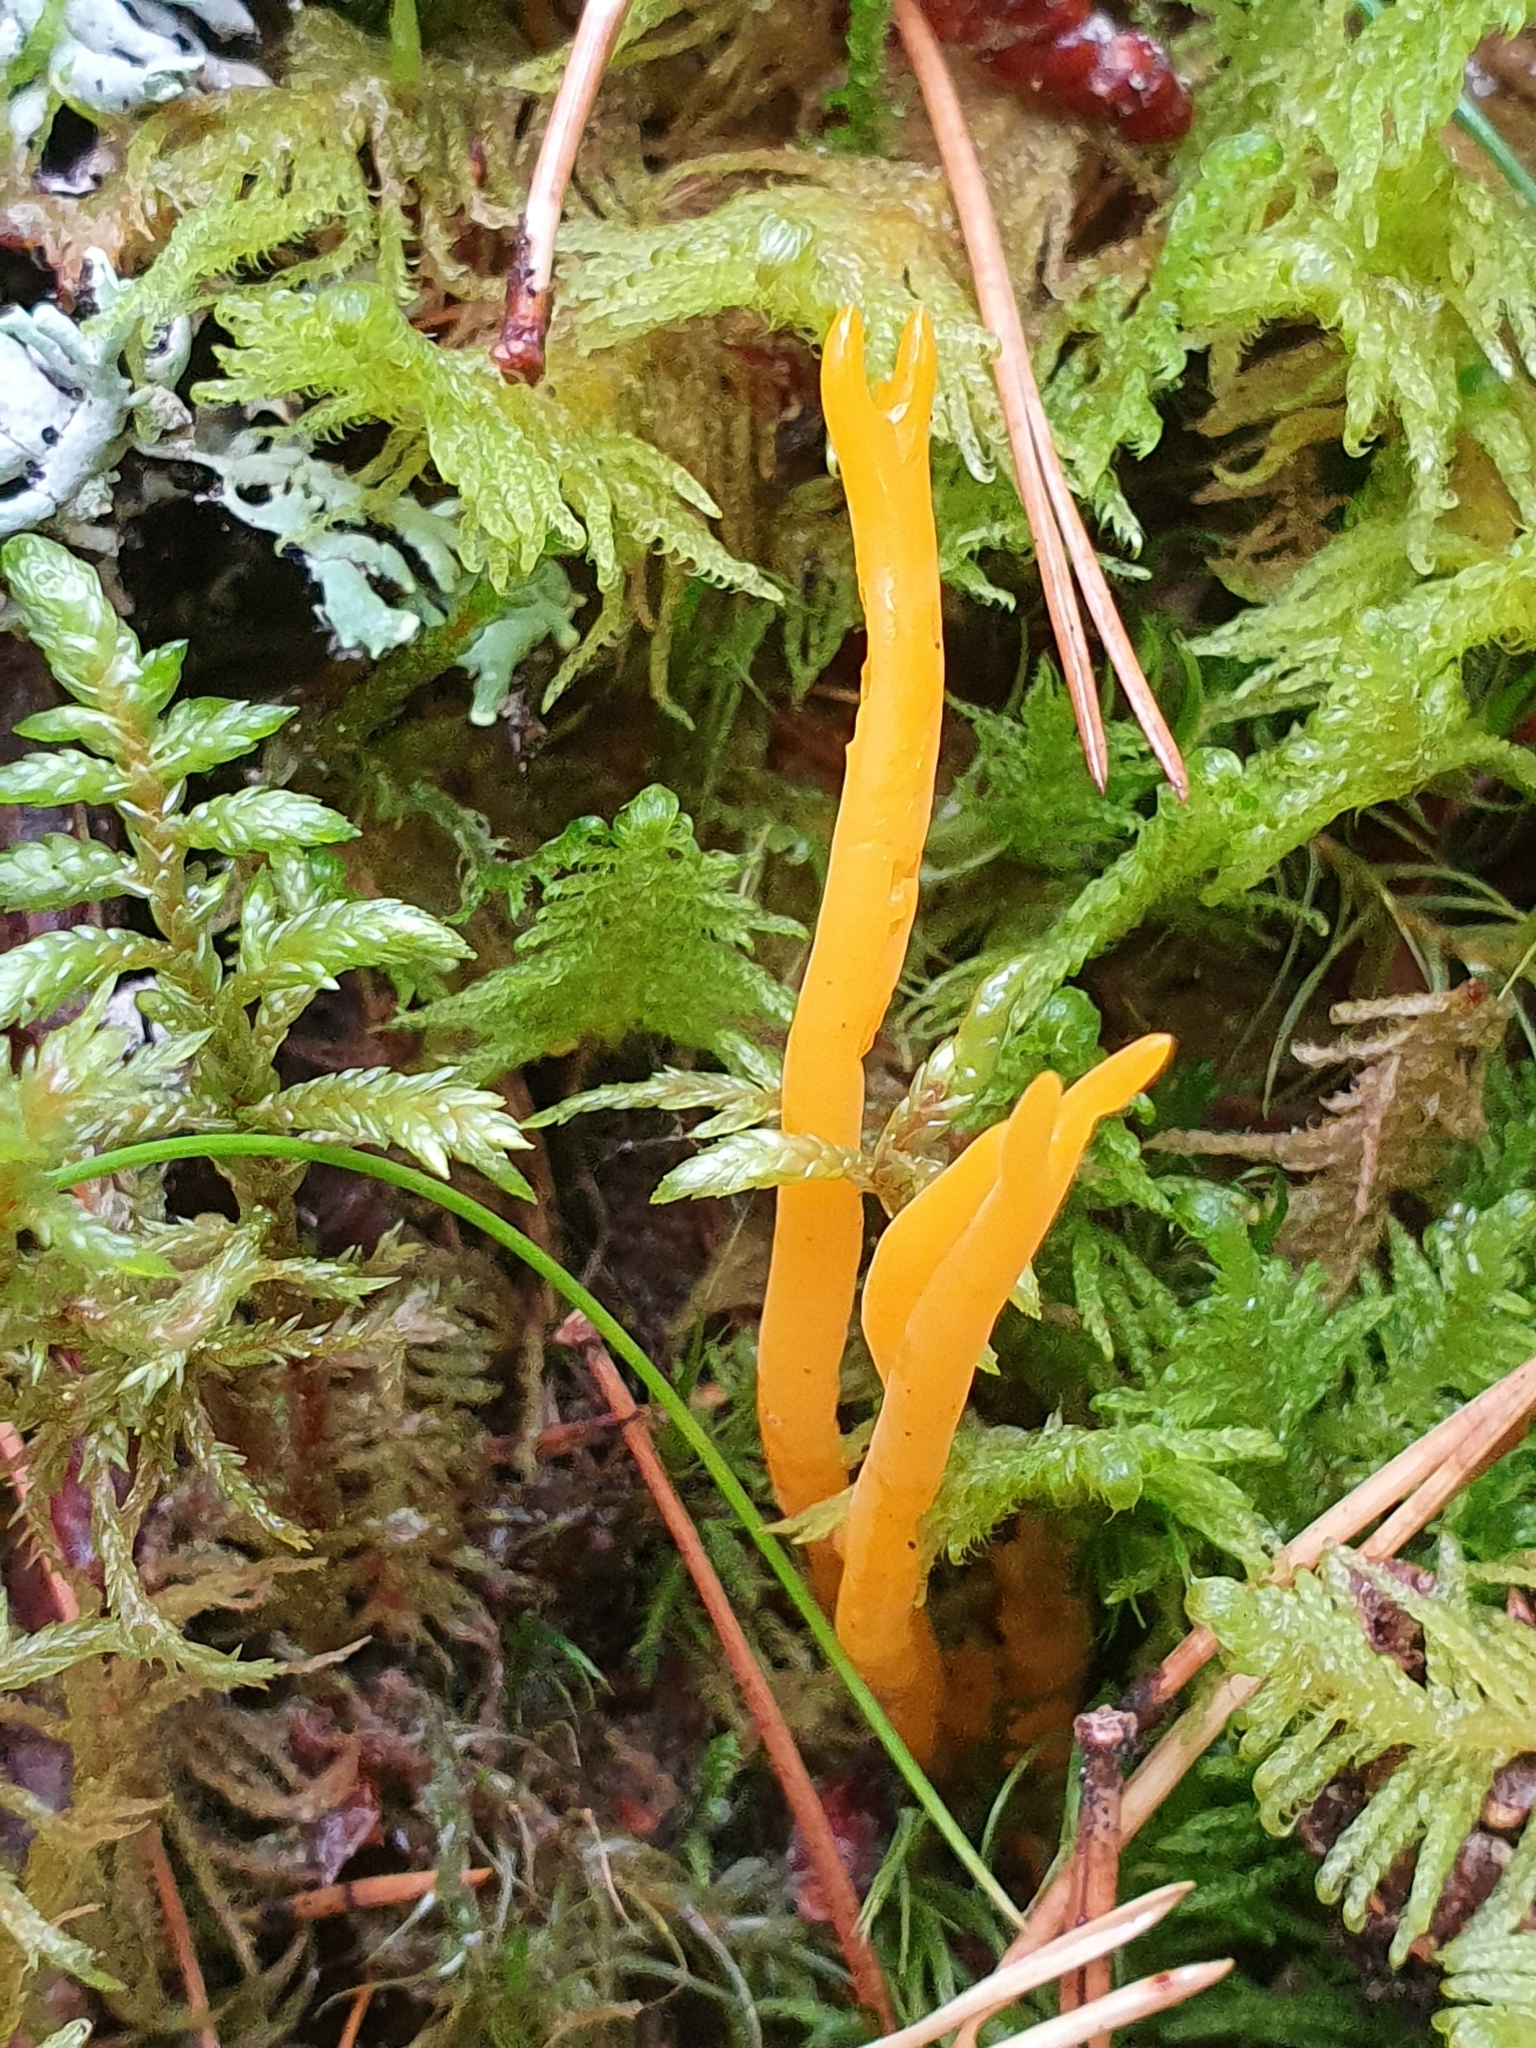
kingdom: Fungi
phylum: Basidiomycota
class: Dacrymycetes
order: Dacrymycetales
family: Dacrymycetaceae
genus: Calocera
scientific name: Calocera viscosa
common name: Yellow stagshorn
